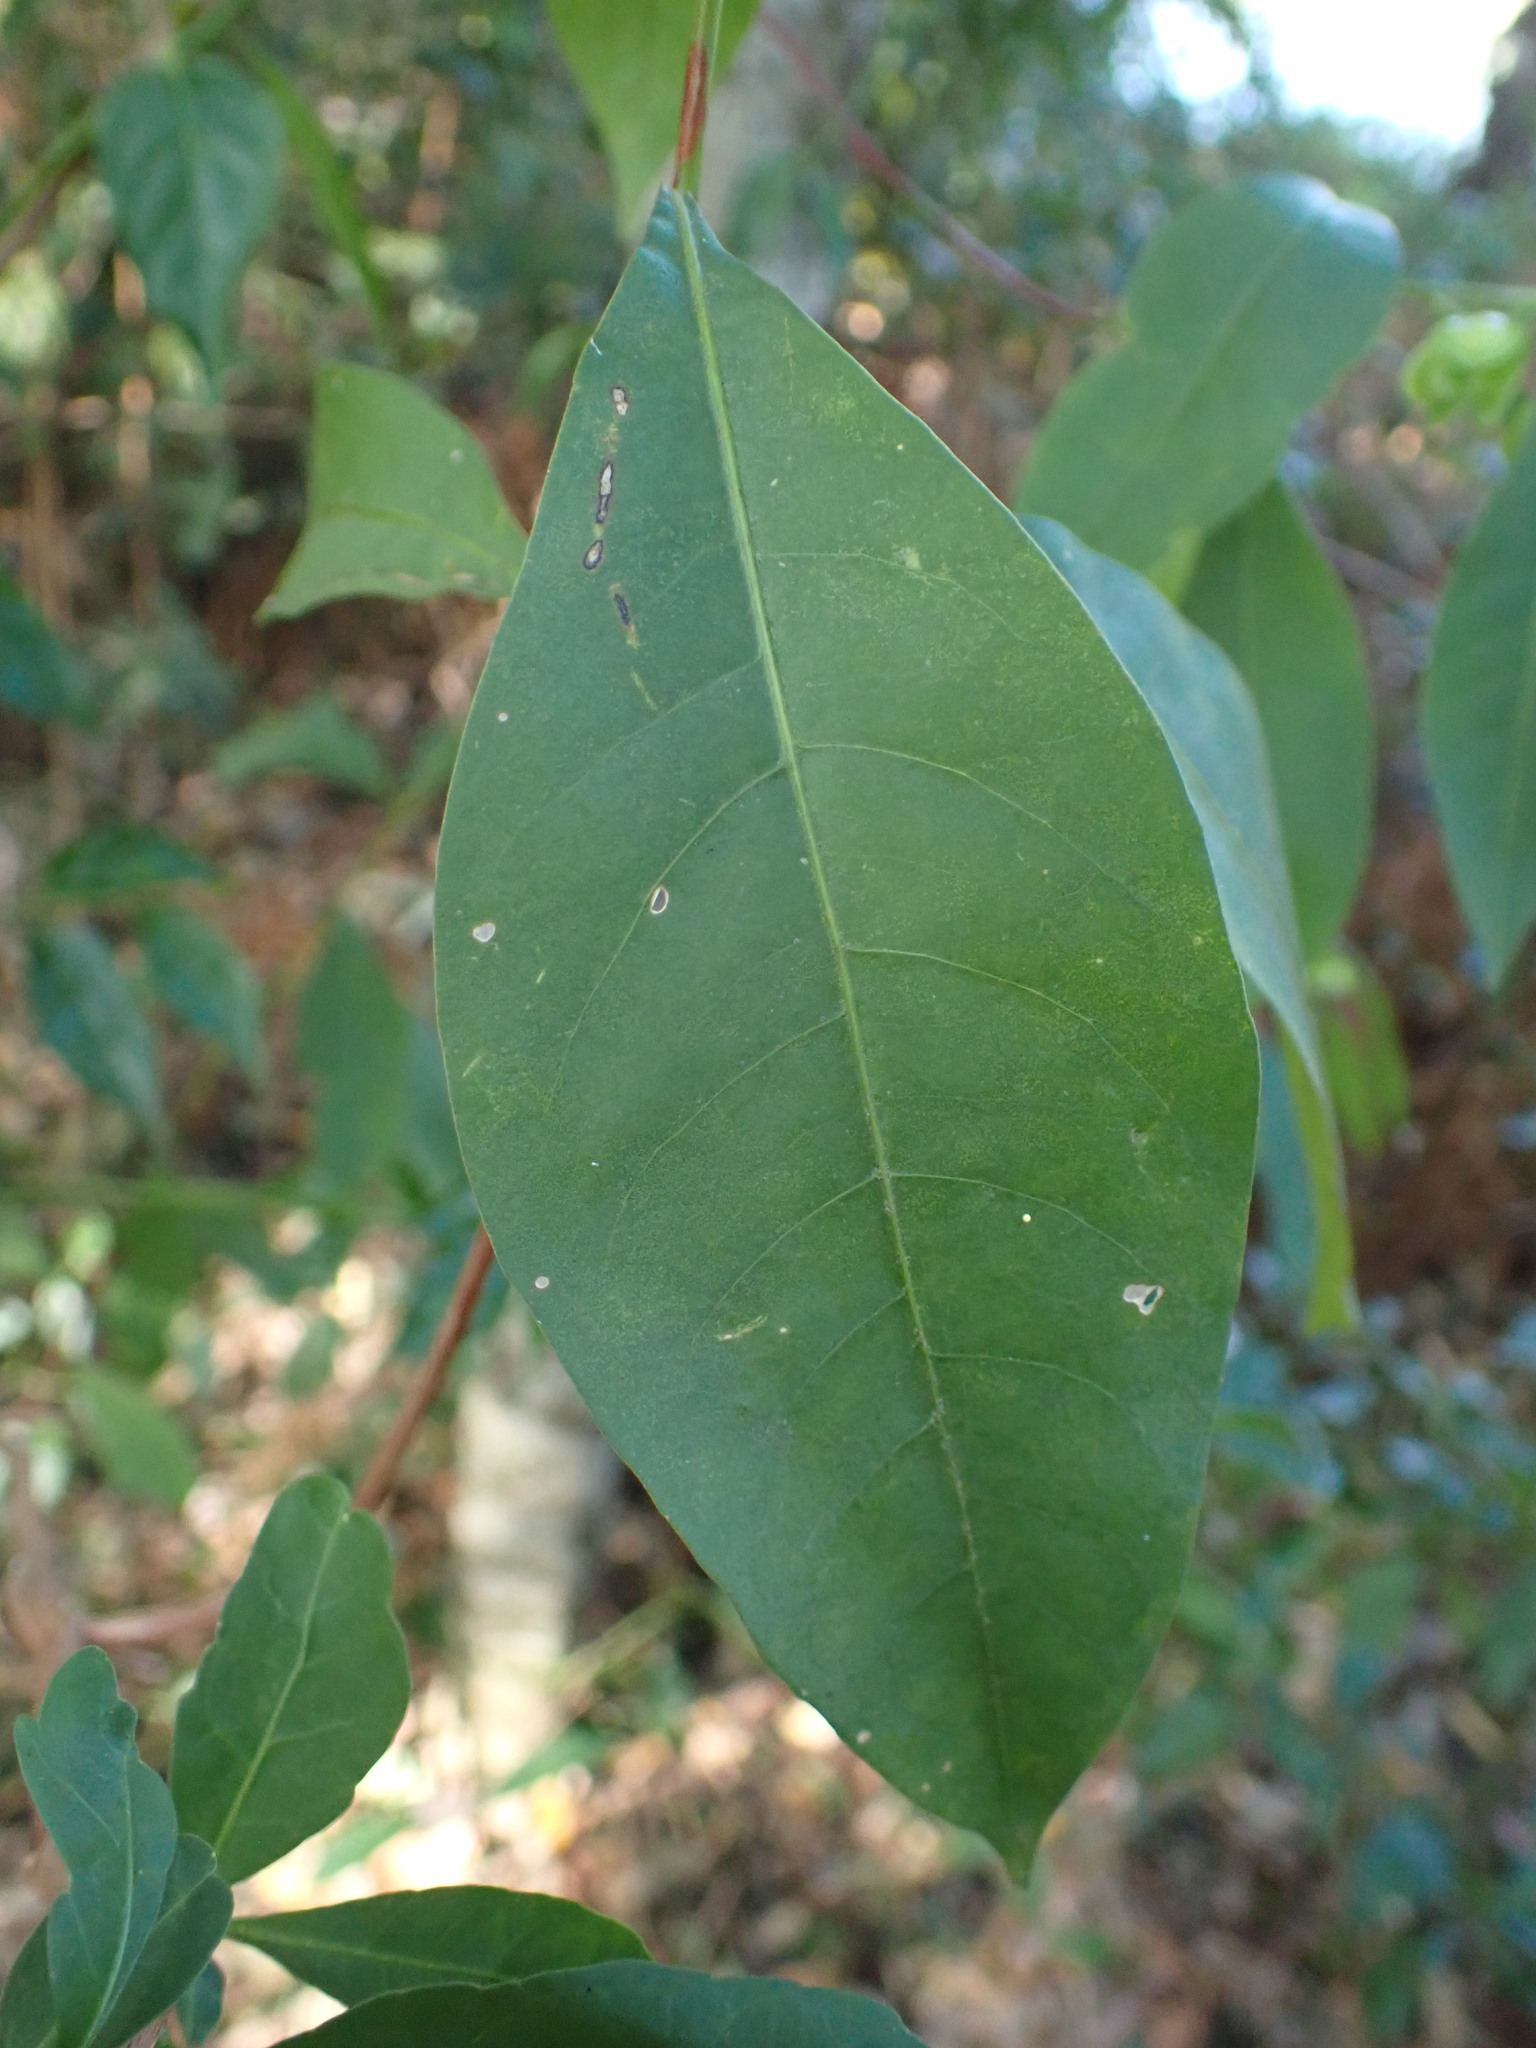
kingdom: Plantae
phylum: Tracheophyta
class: Magnoliopsida
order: Sapindales
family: Sapindaceae
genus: Dodonaea
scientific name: Dodonaea triquetra
